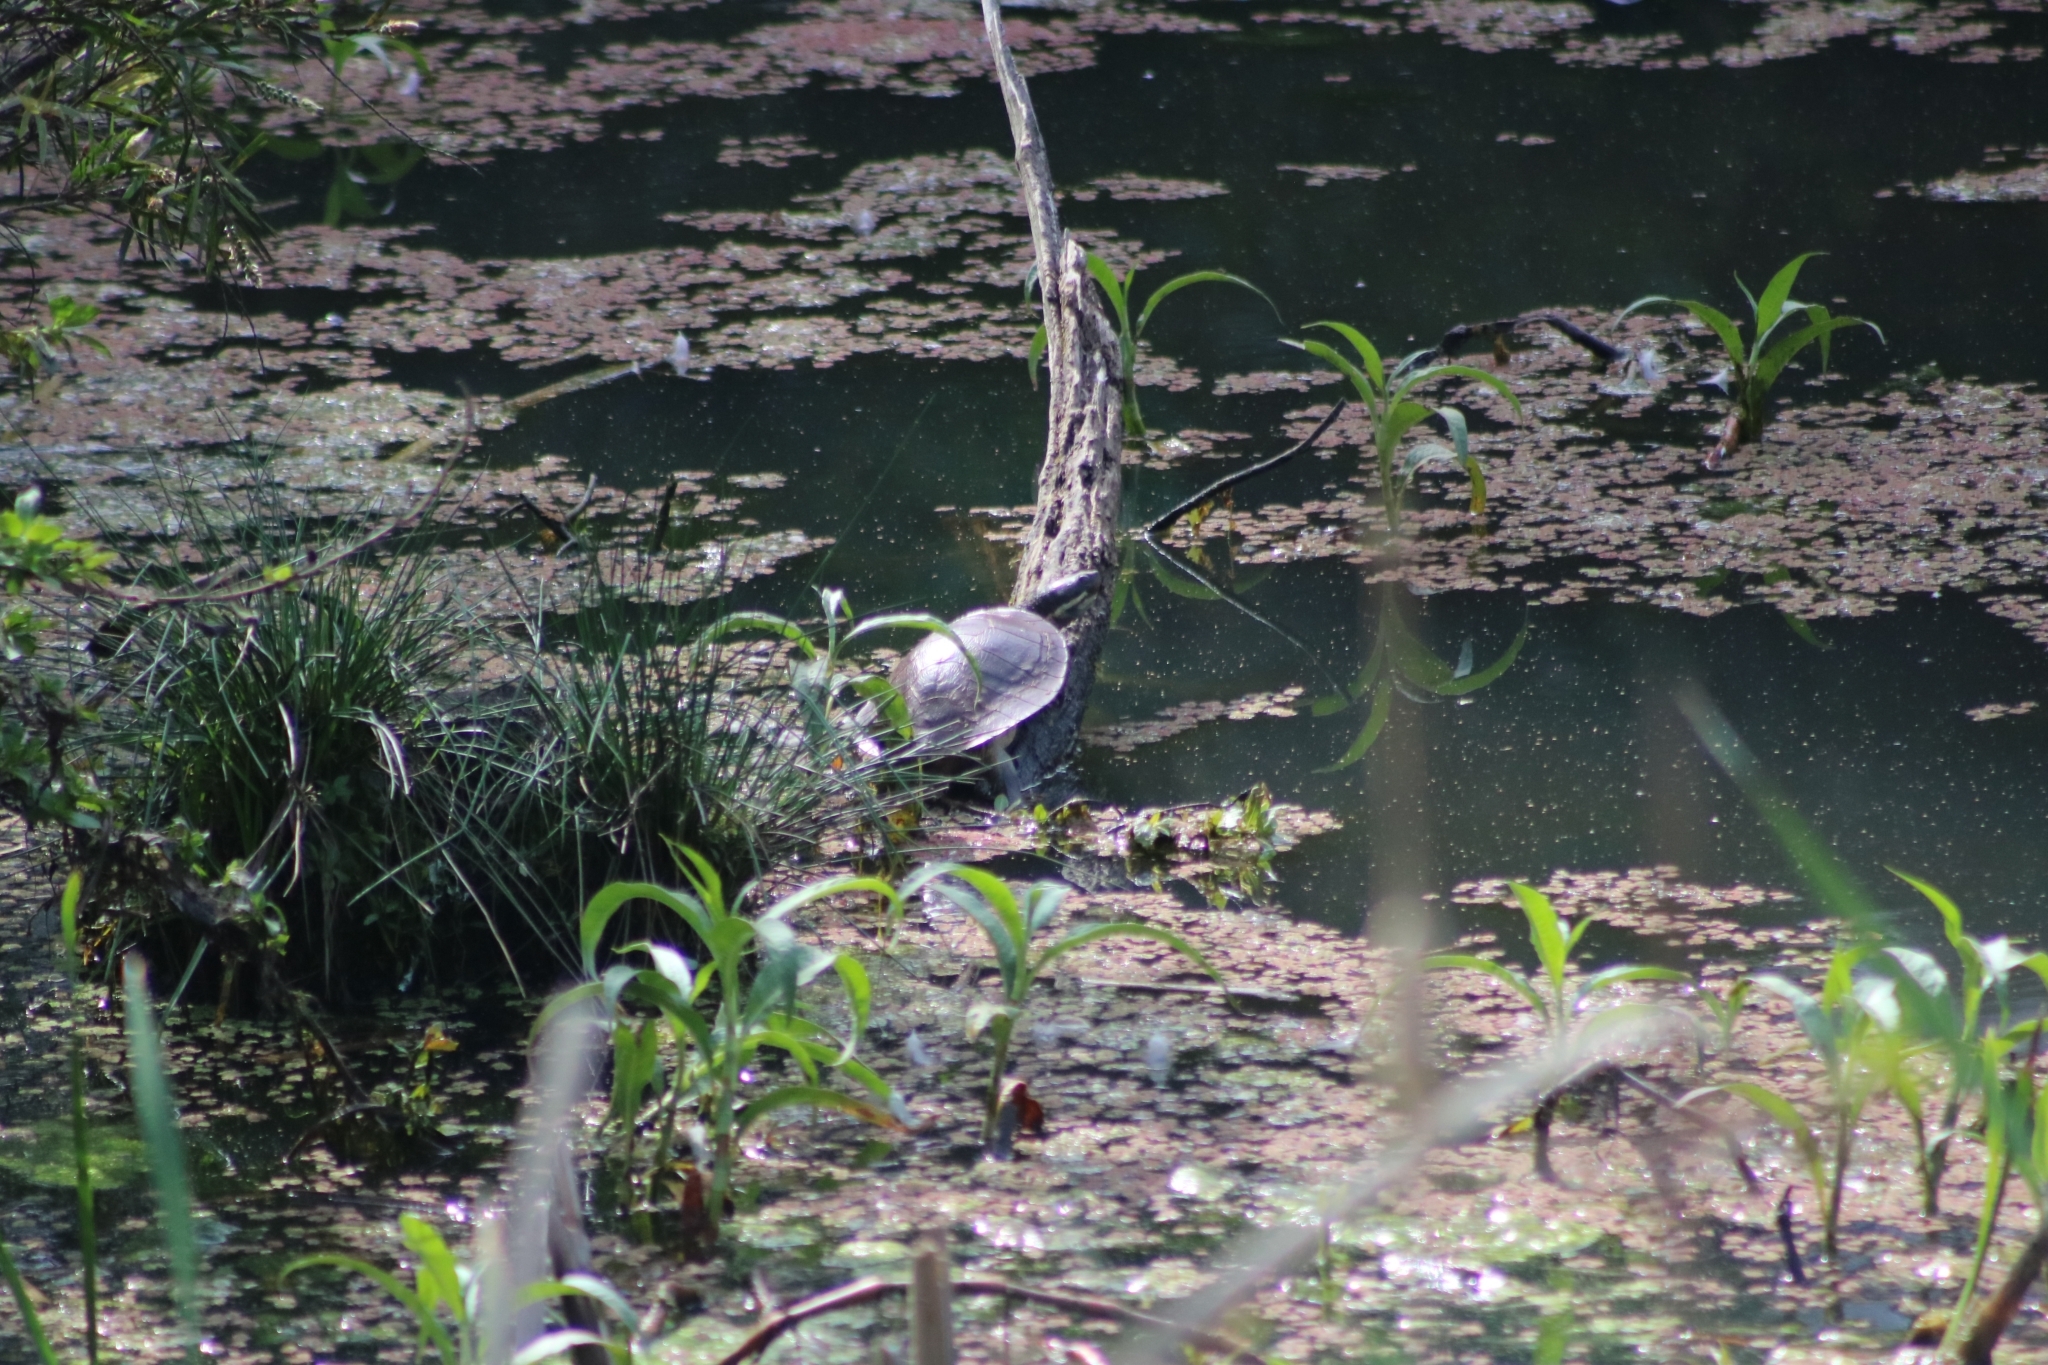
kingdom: Animalia
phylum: Chordata
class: Testudines
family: Chelidae
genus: Emydura
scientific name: Emydura macquarii
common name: Murray river turtle
